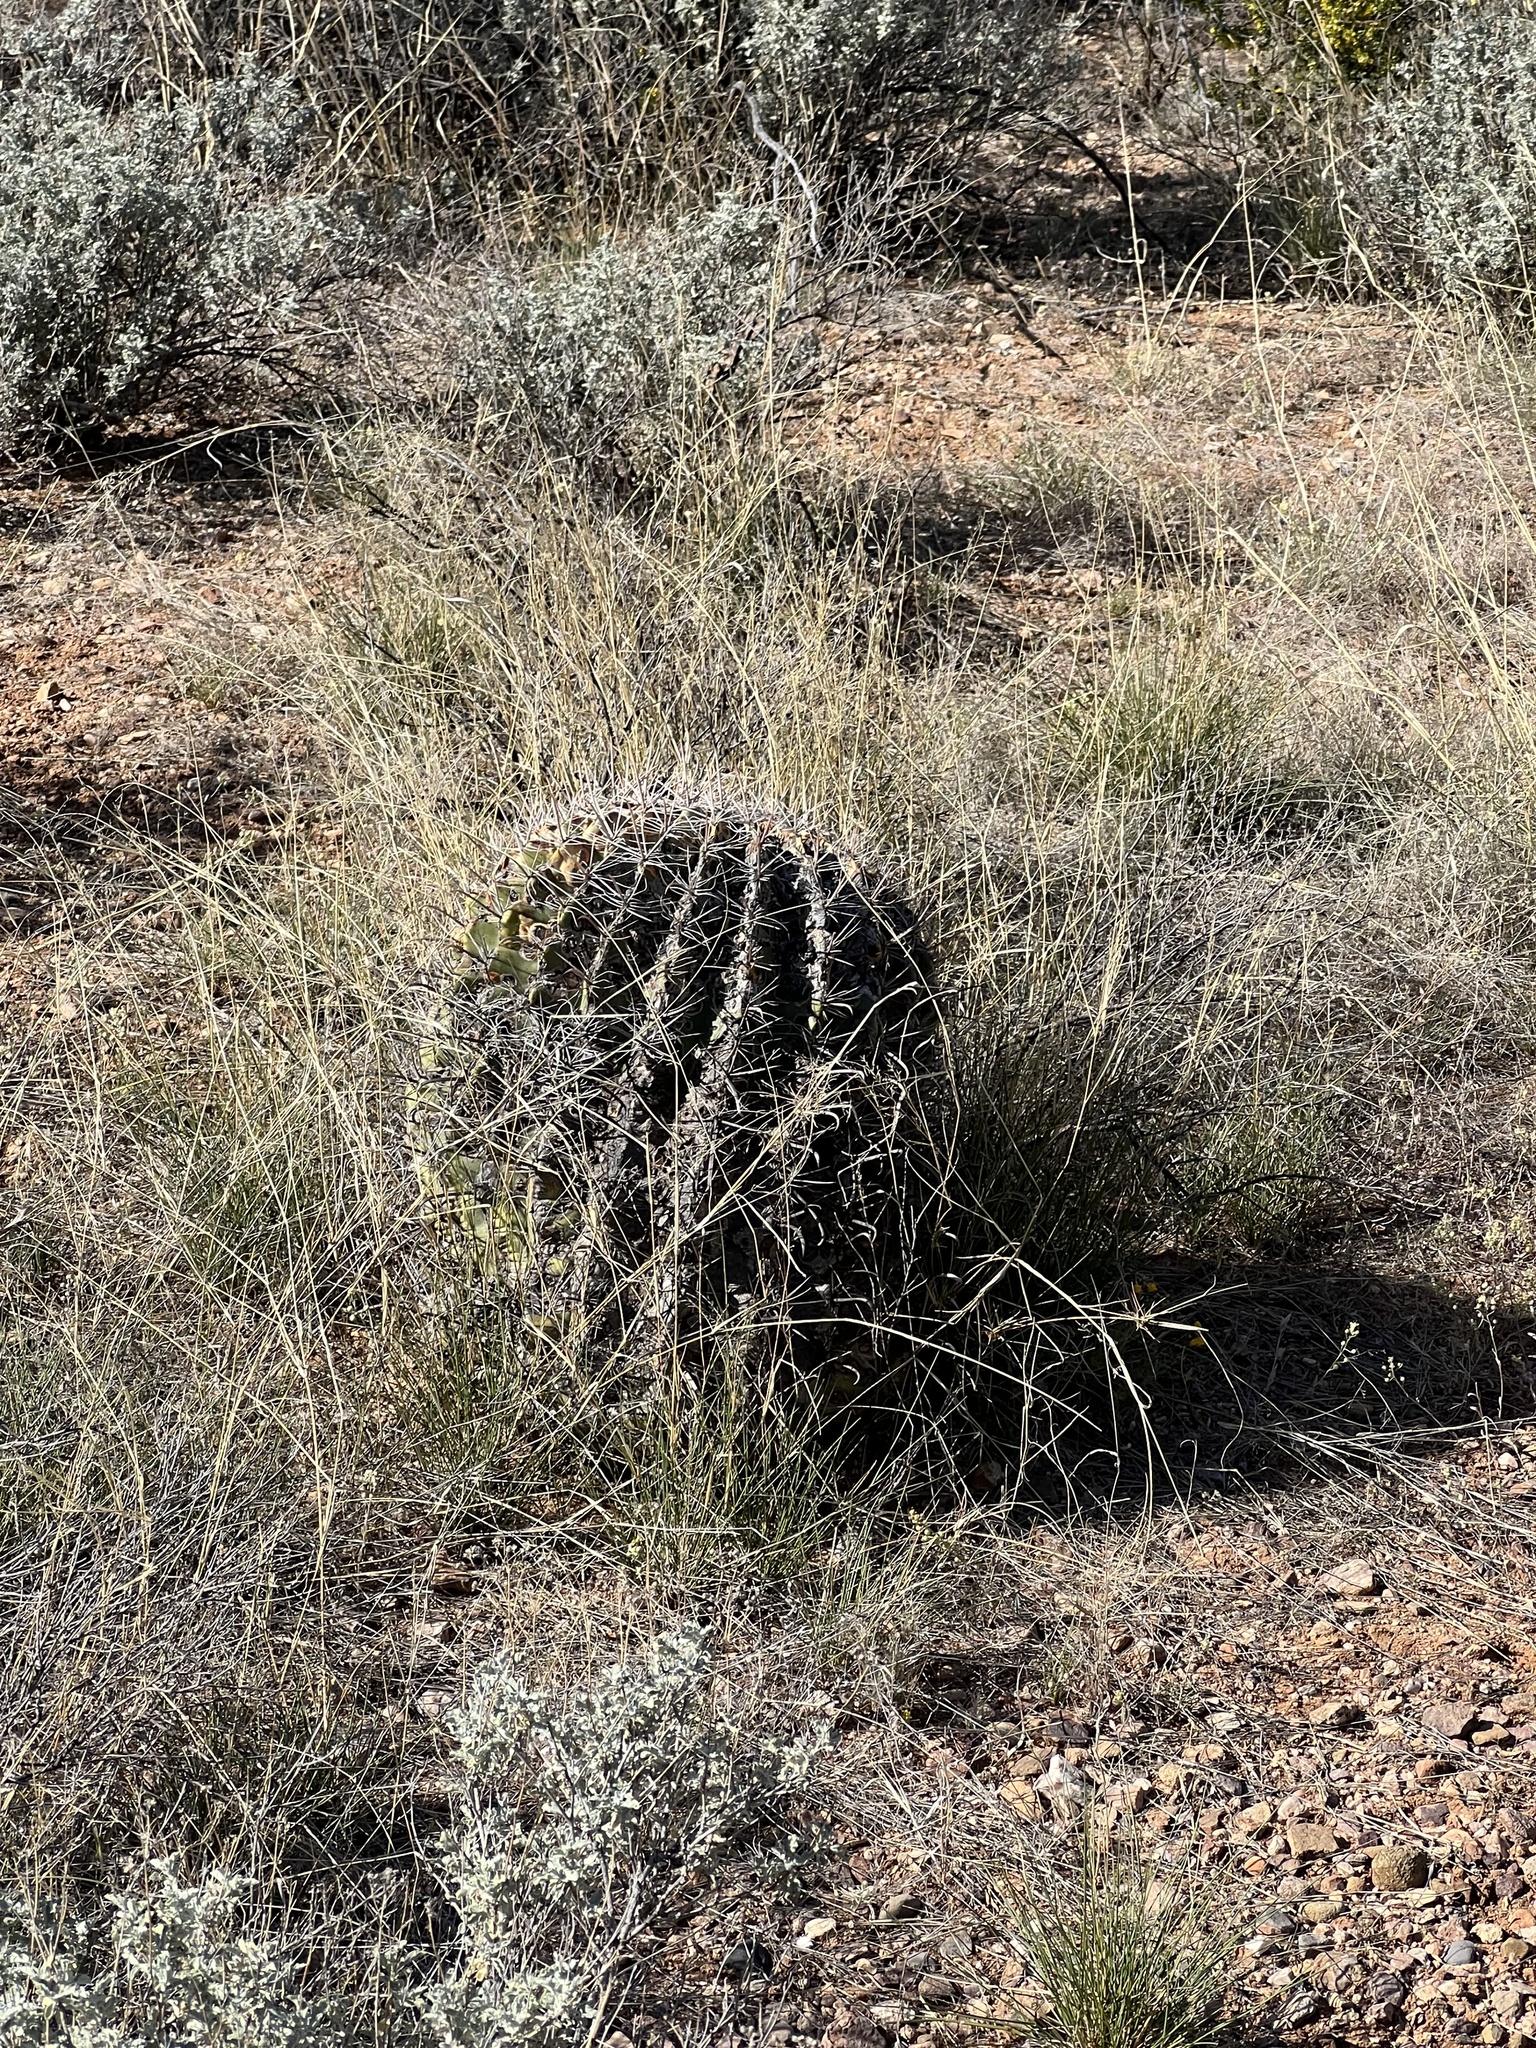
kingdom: Plantae
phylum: Tracheophyta
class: Magnoliopsida
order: Caryophyllales
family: Cactaceae
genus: Ferocactus
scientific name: Ferocactus wislizeni
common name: Candy barrel cactus
